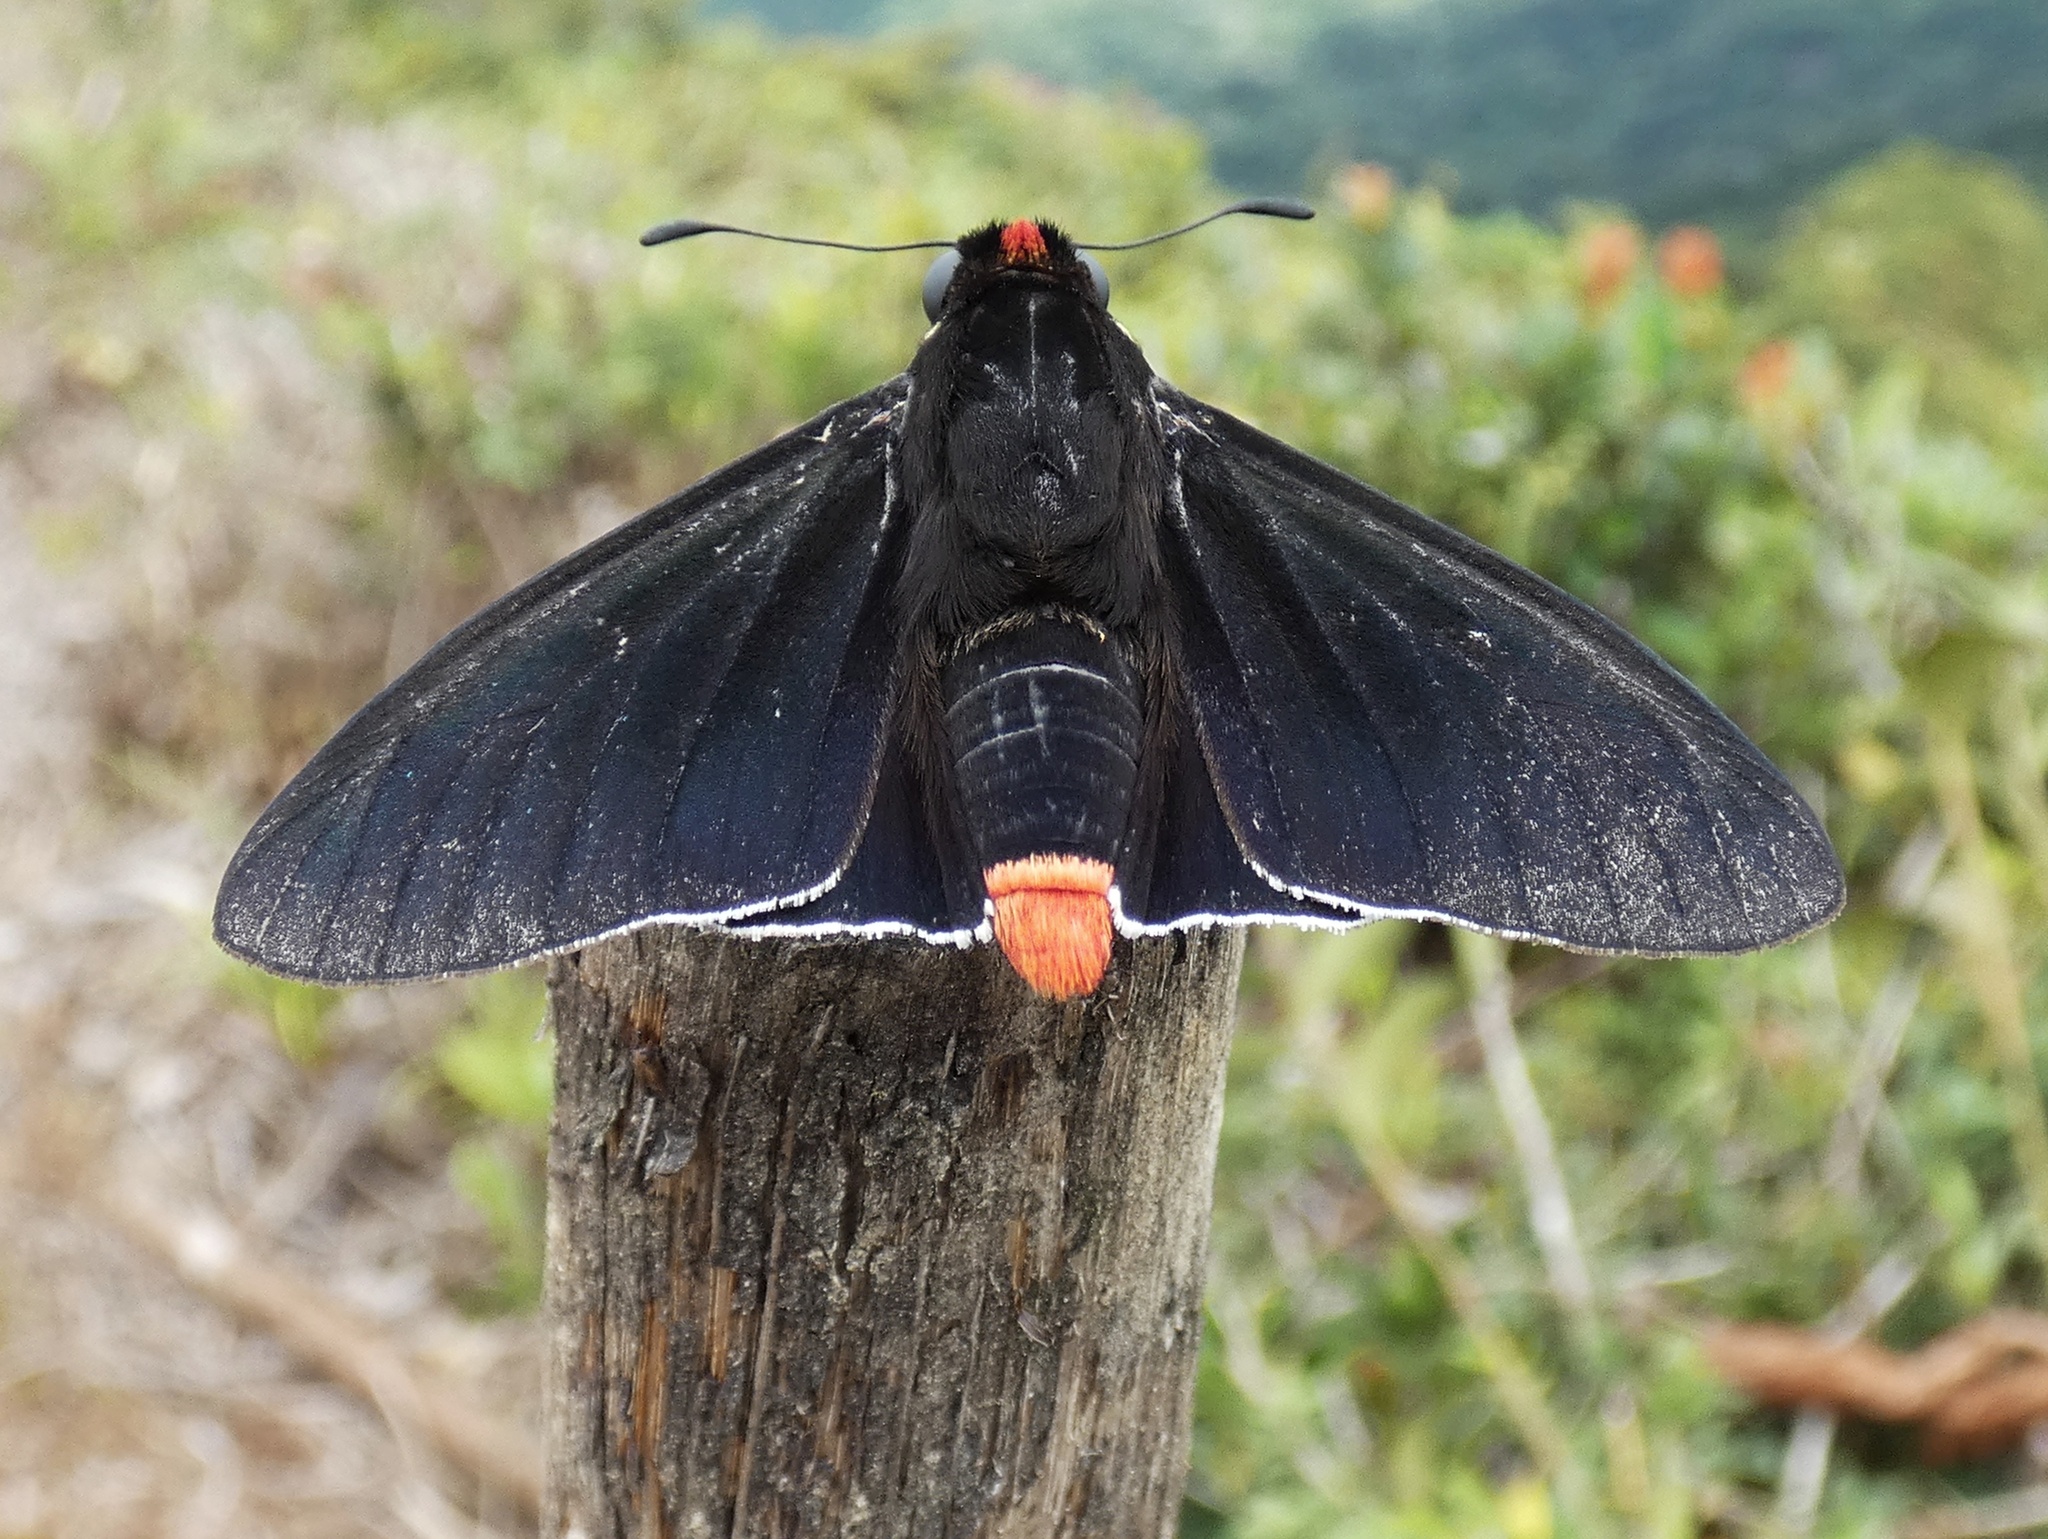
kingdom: Animalia
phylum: Arthropoda
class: Insecta
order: Lepidoptera
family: Hesperiidae
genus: Mysoria
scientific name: Mysoria thasus
